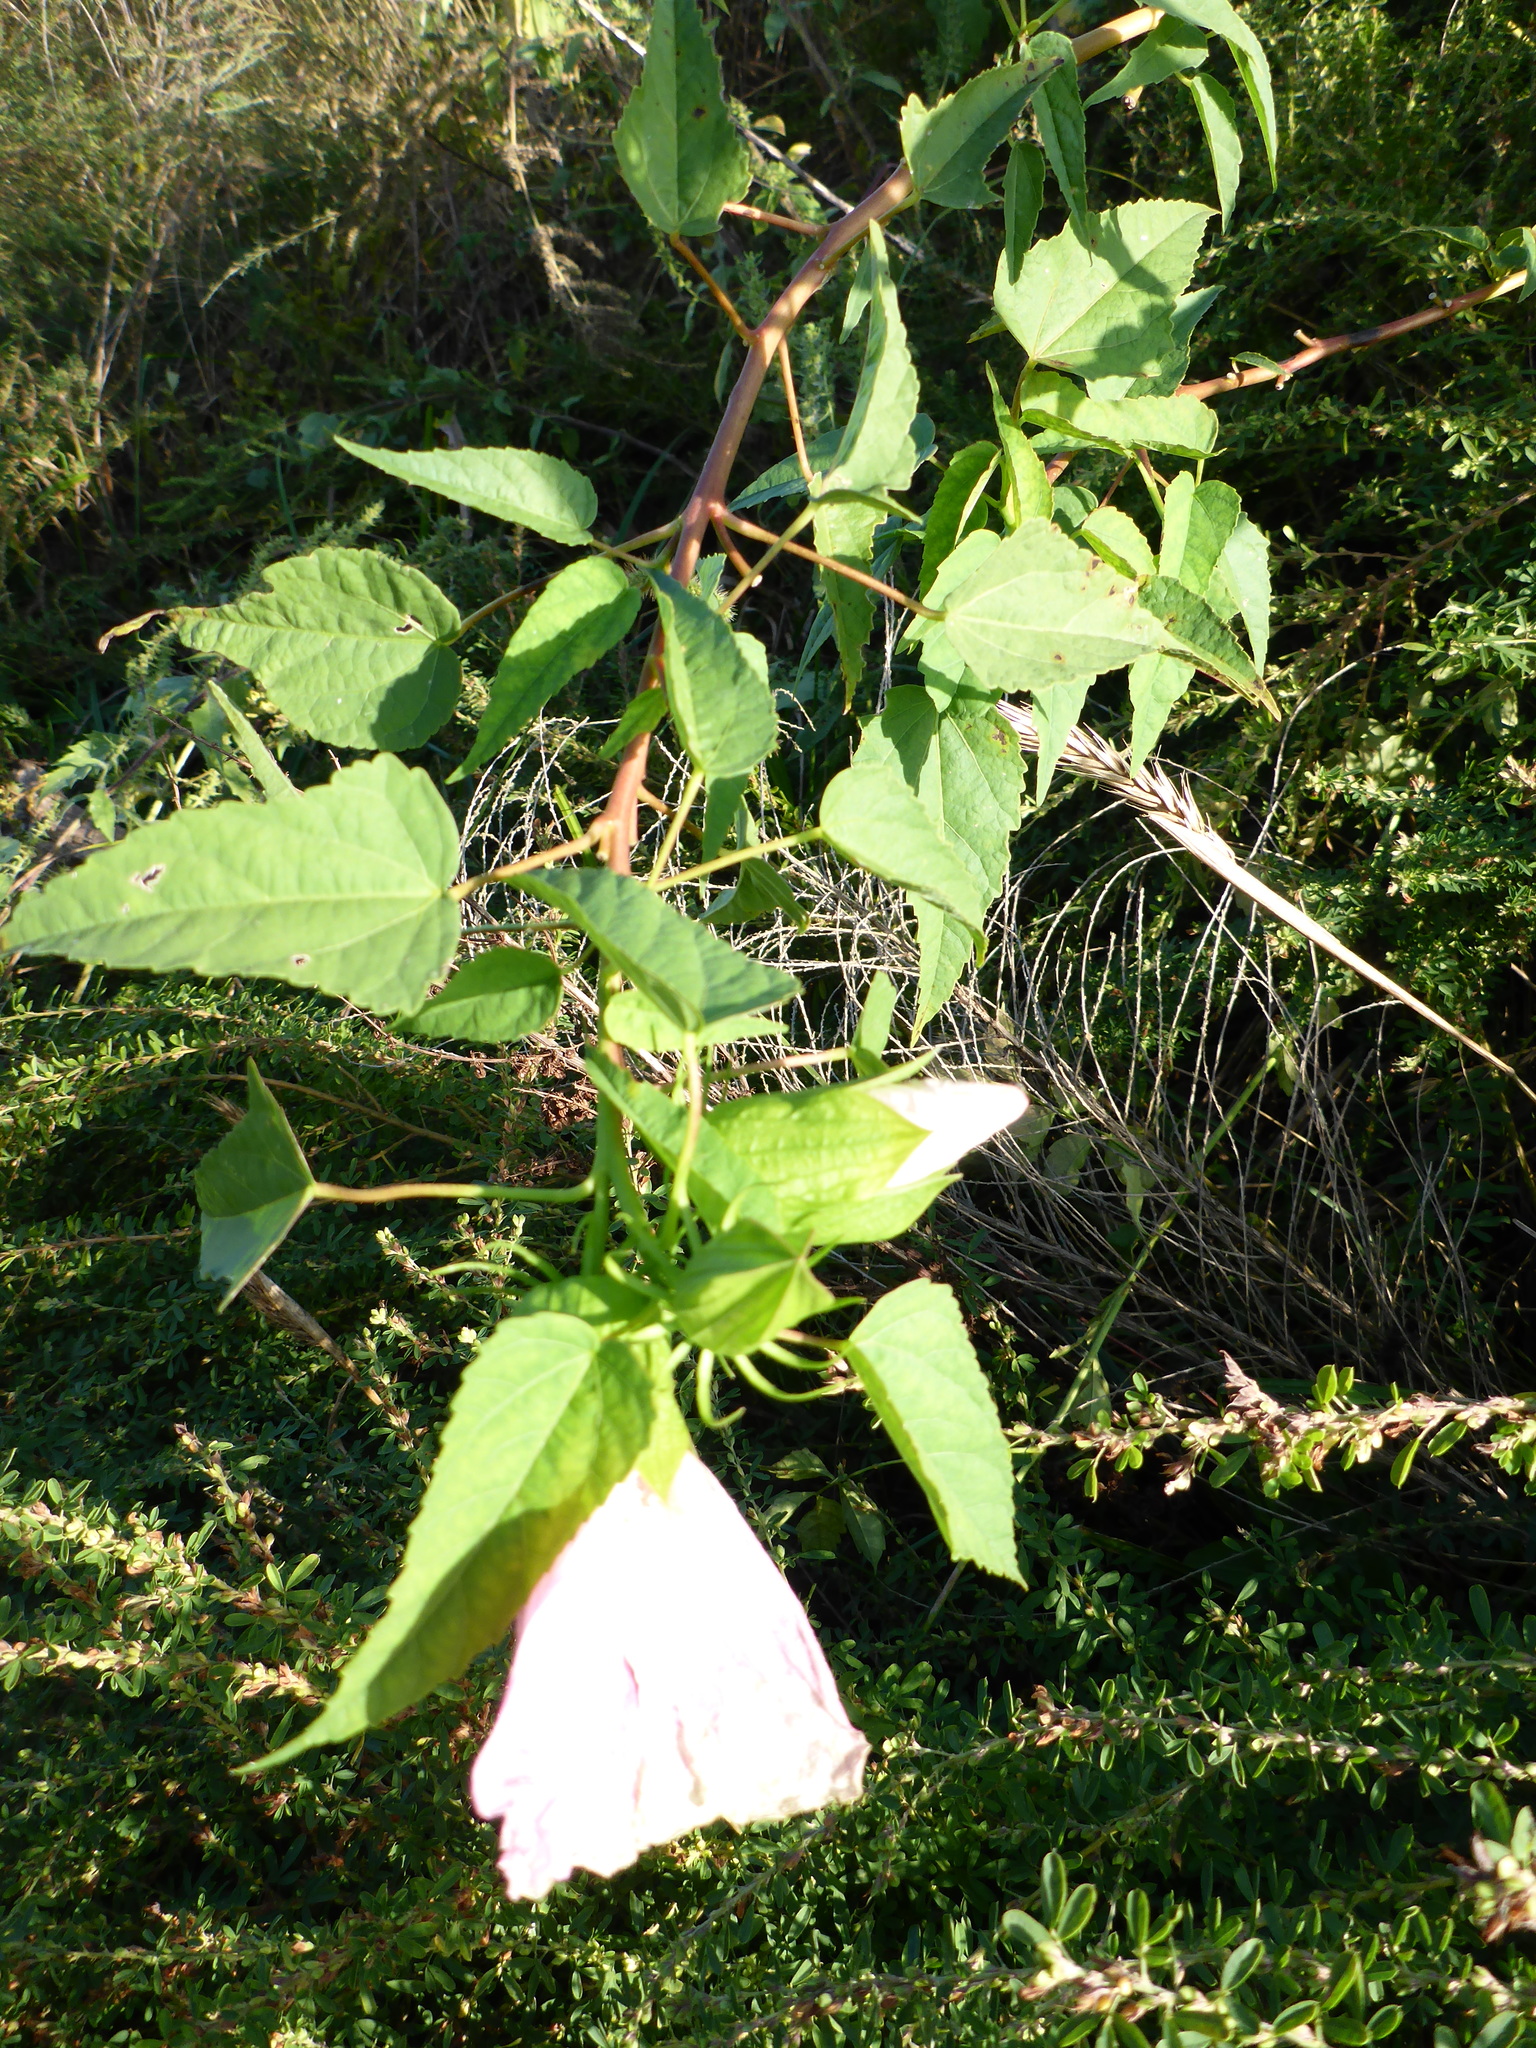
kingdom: Plantae
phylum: Tracheophyta
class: Magnoliopsida
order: Malvales
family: Malvaceae
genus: Hibiscus
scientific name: Hibiscus laevis
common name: Scarlet rose-mallow
